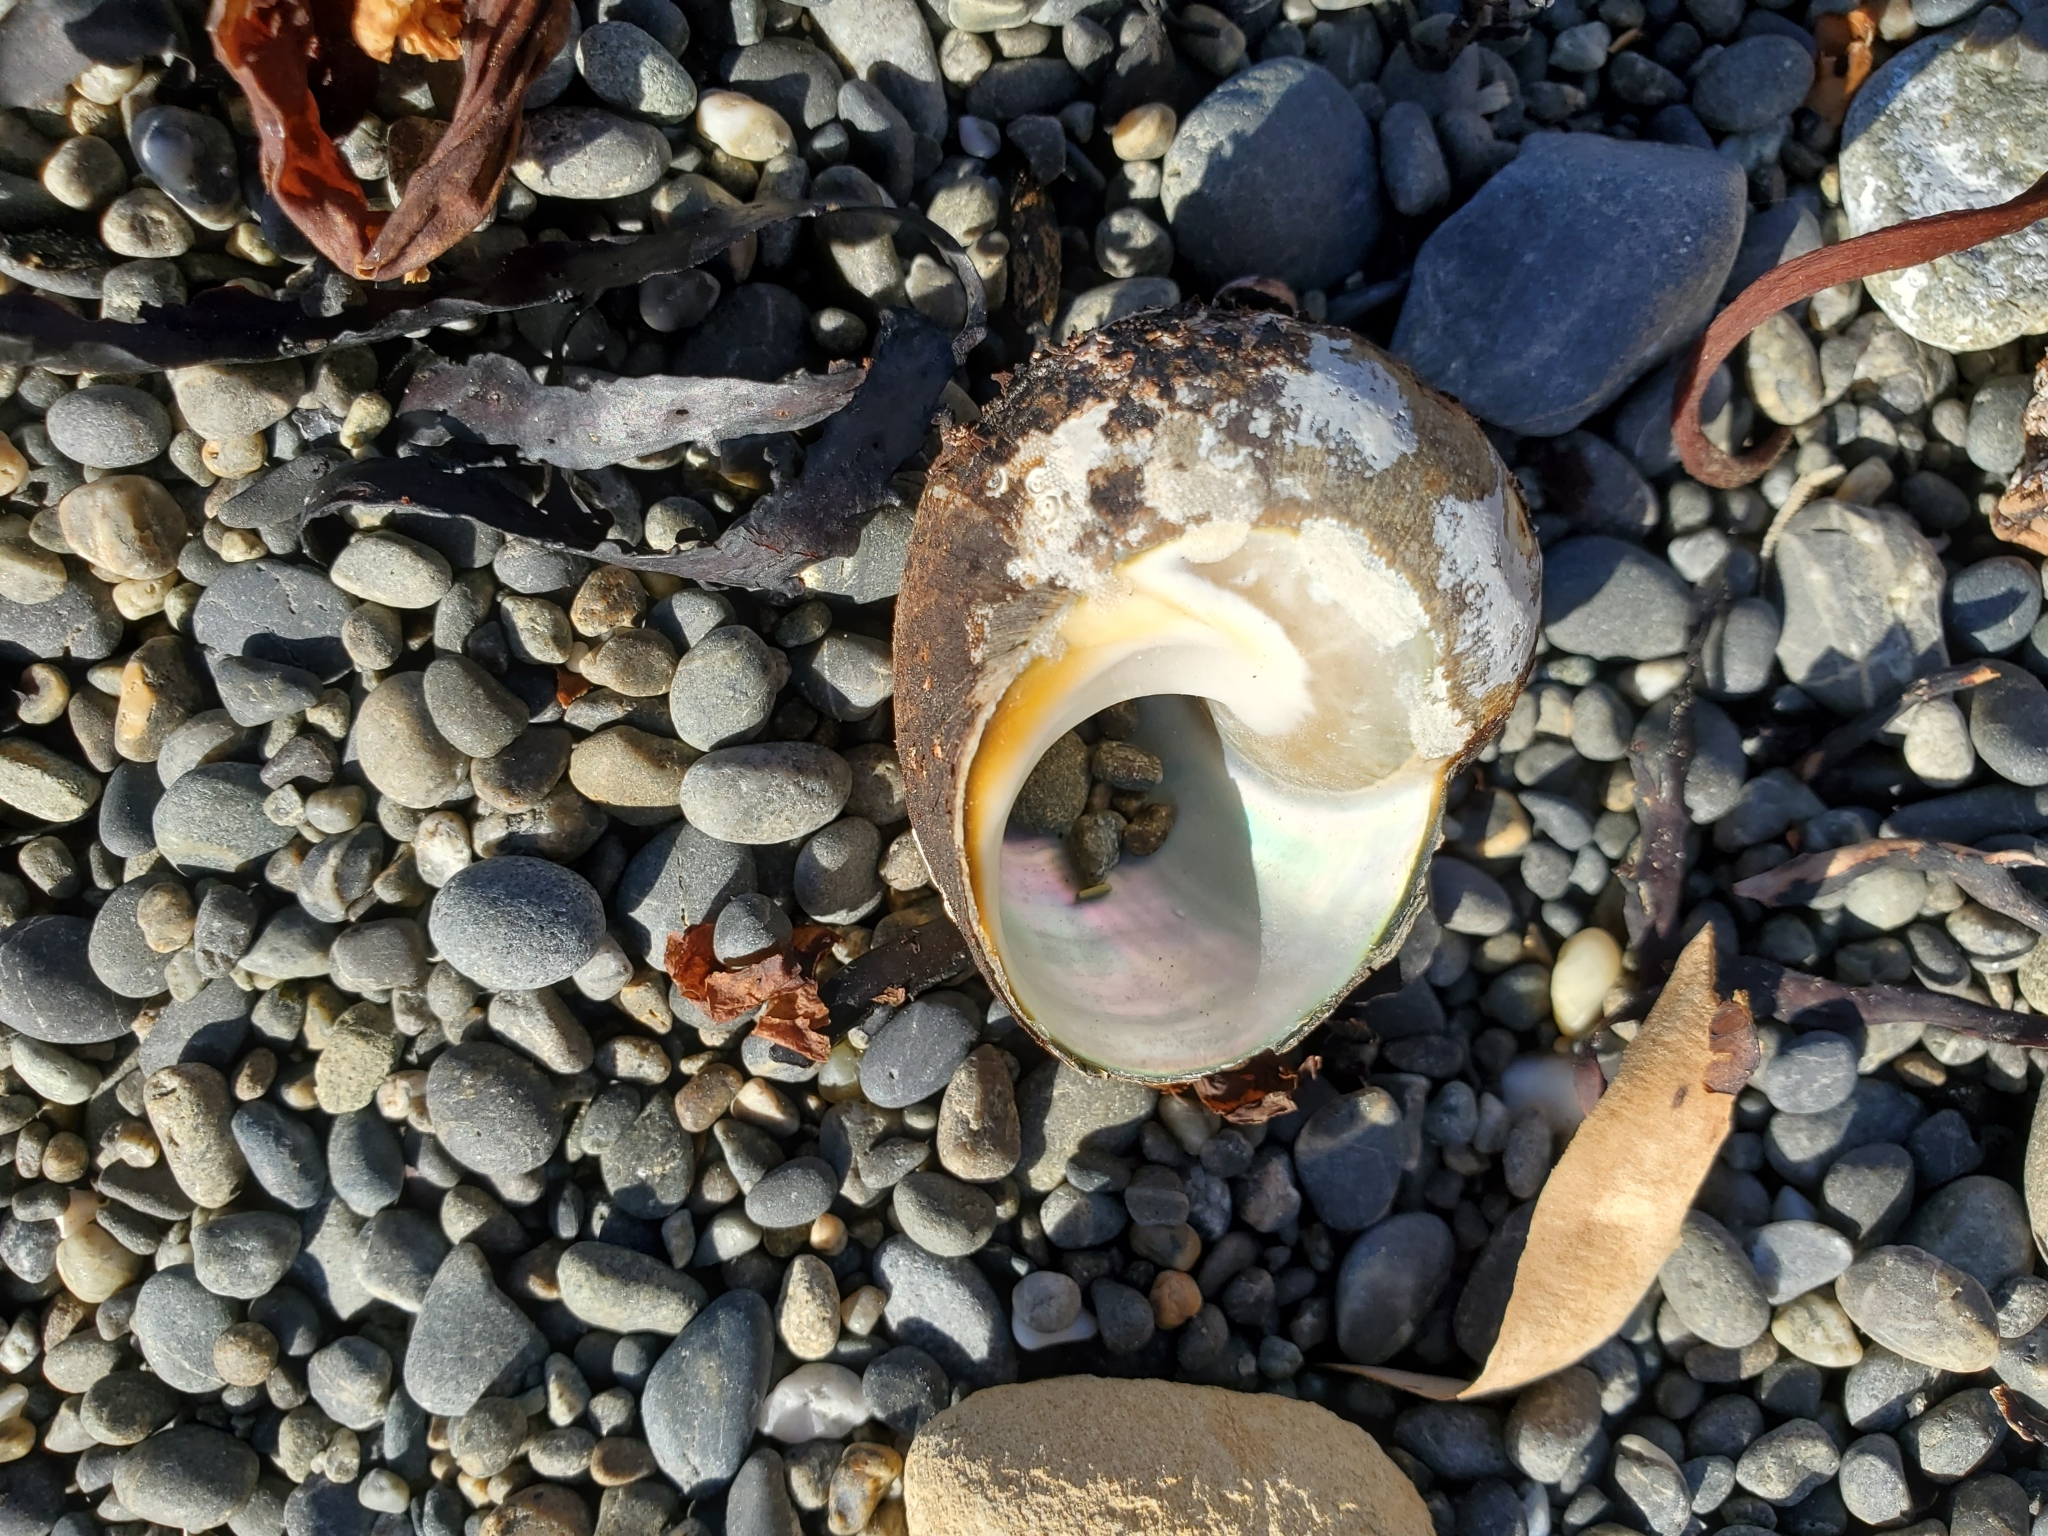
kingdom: Animalia
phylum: Mollusca
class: Gastropoda
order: Trochida
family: Turbinidae
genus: Lunella
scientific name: Lunella smaragda
